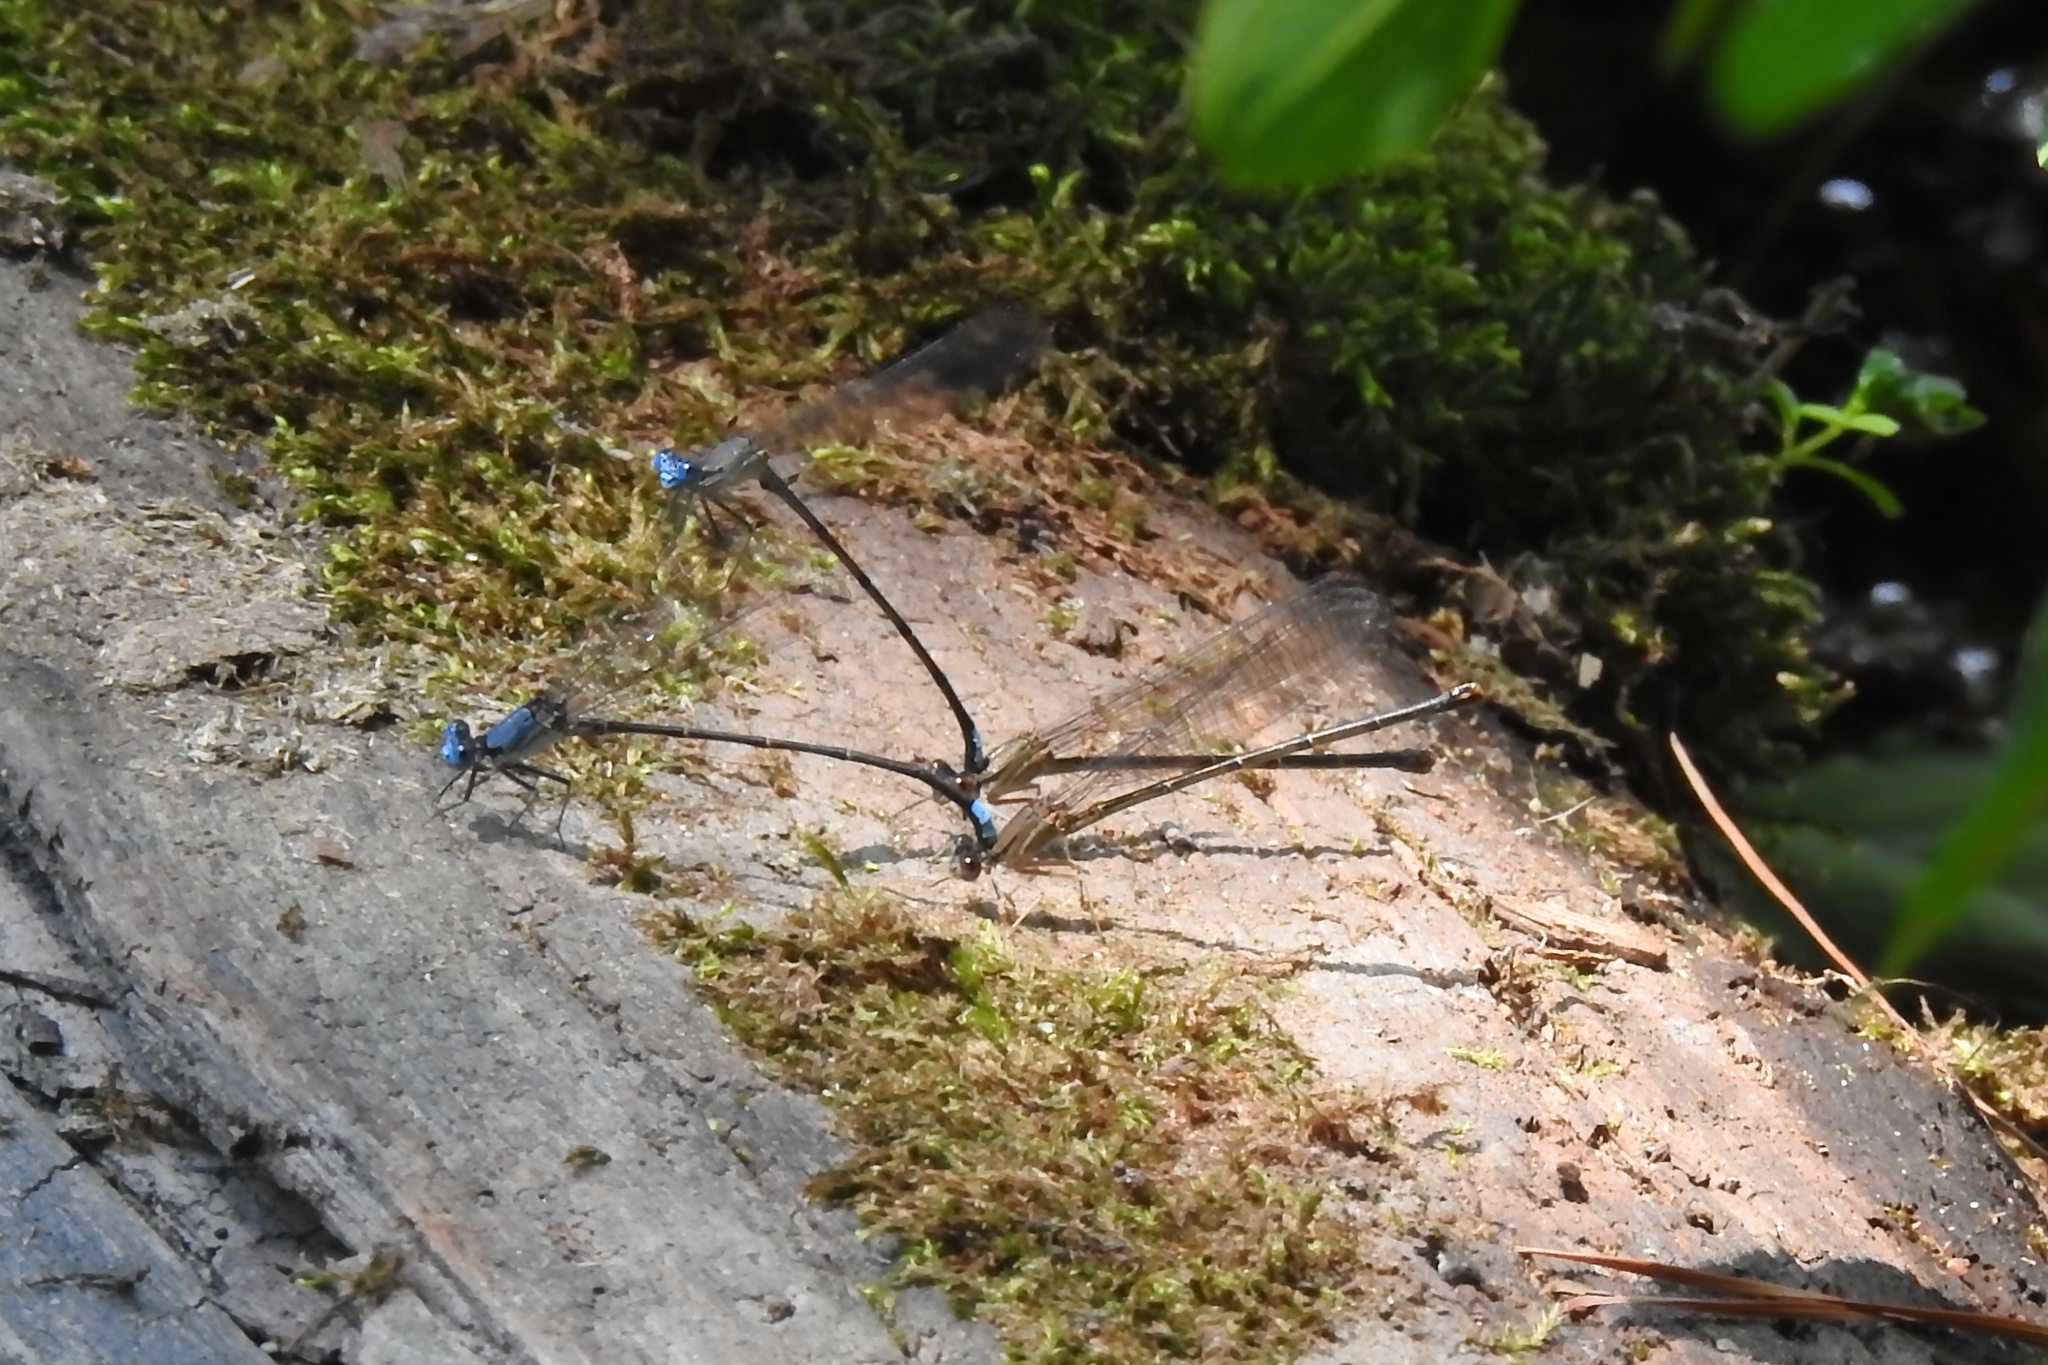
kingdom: Animalia
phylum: Arthropoda
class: Insecta
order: Odonata
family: Coenagrionidae
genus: Argia
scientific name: Argia apicalis
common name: Blue-fronted dancer
